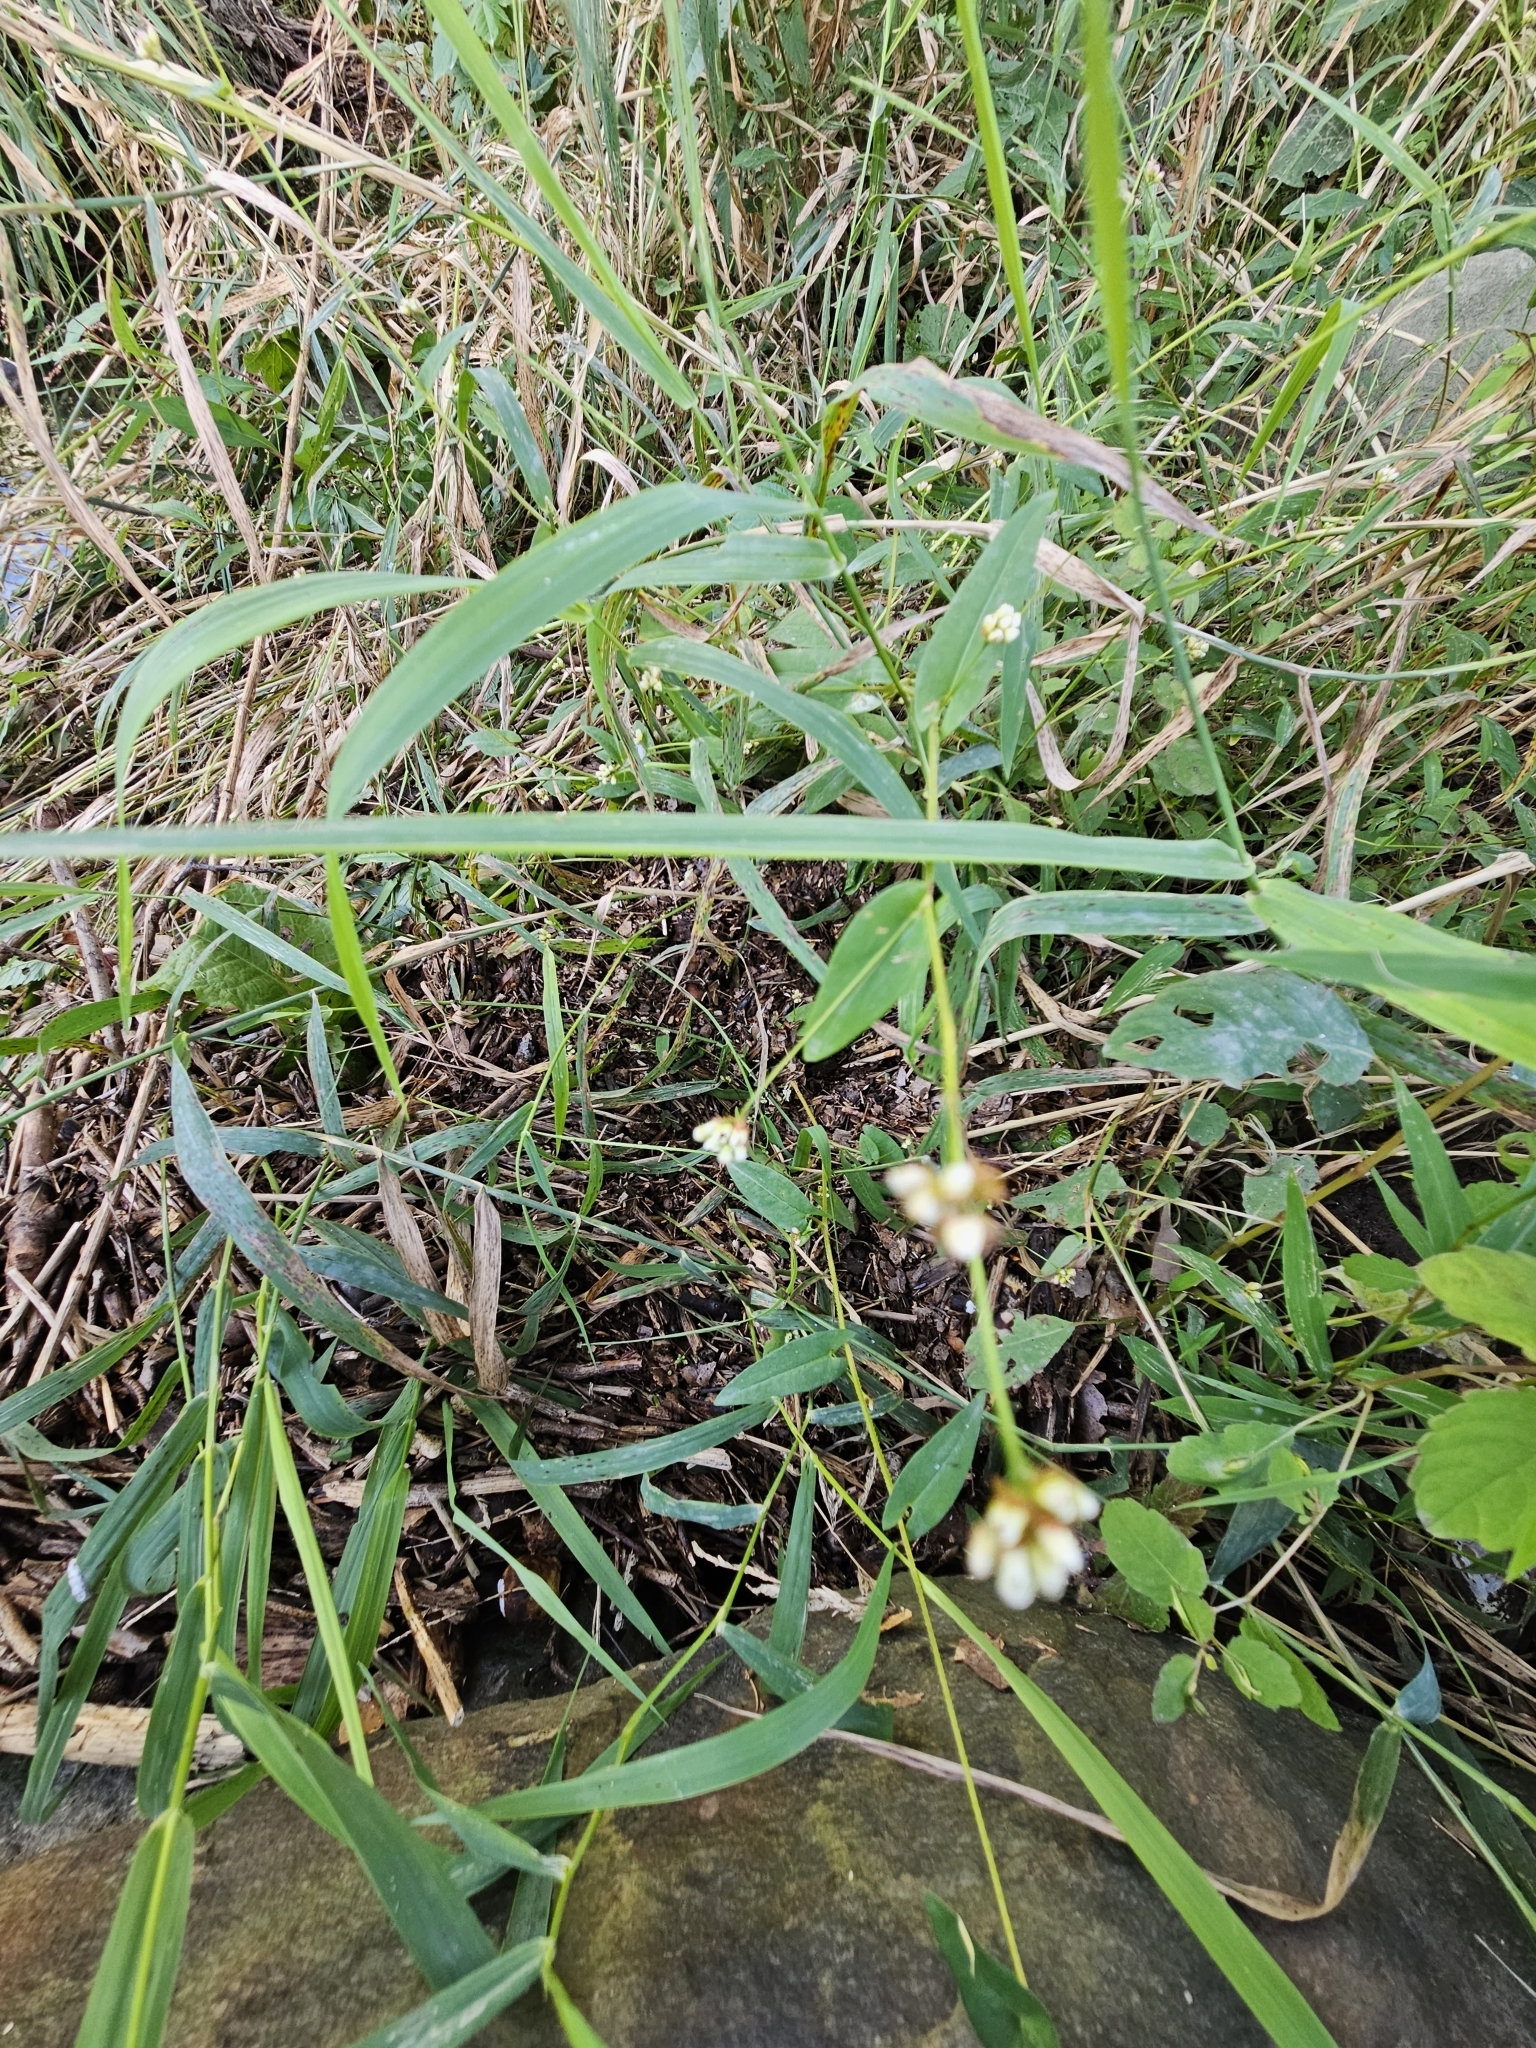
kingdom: Plantae
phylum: Tracheophyta
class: Magnoliopsida
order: Caryophyllales
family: Polygonaceae
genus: Persicaria
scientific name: Persicaria sagittata
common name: American tearthumb
